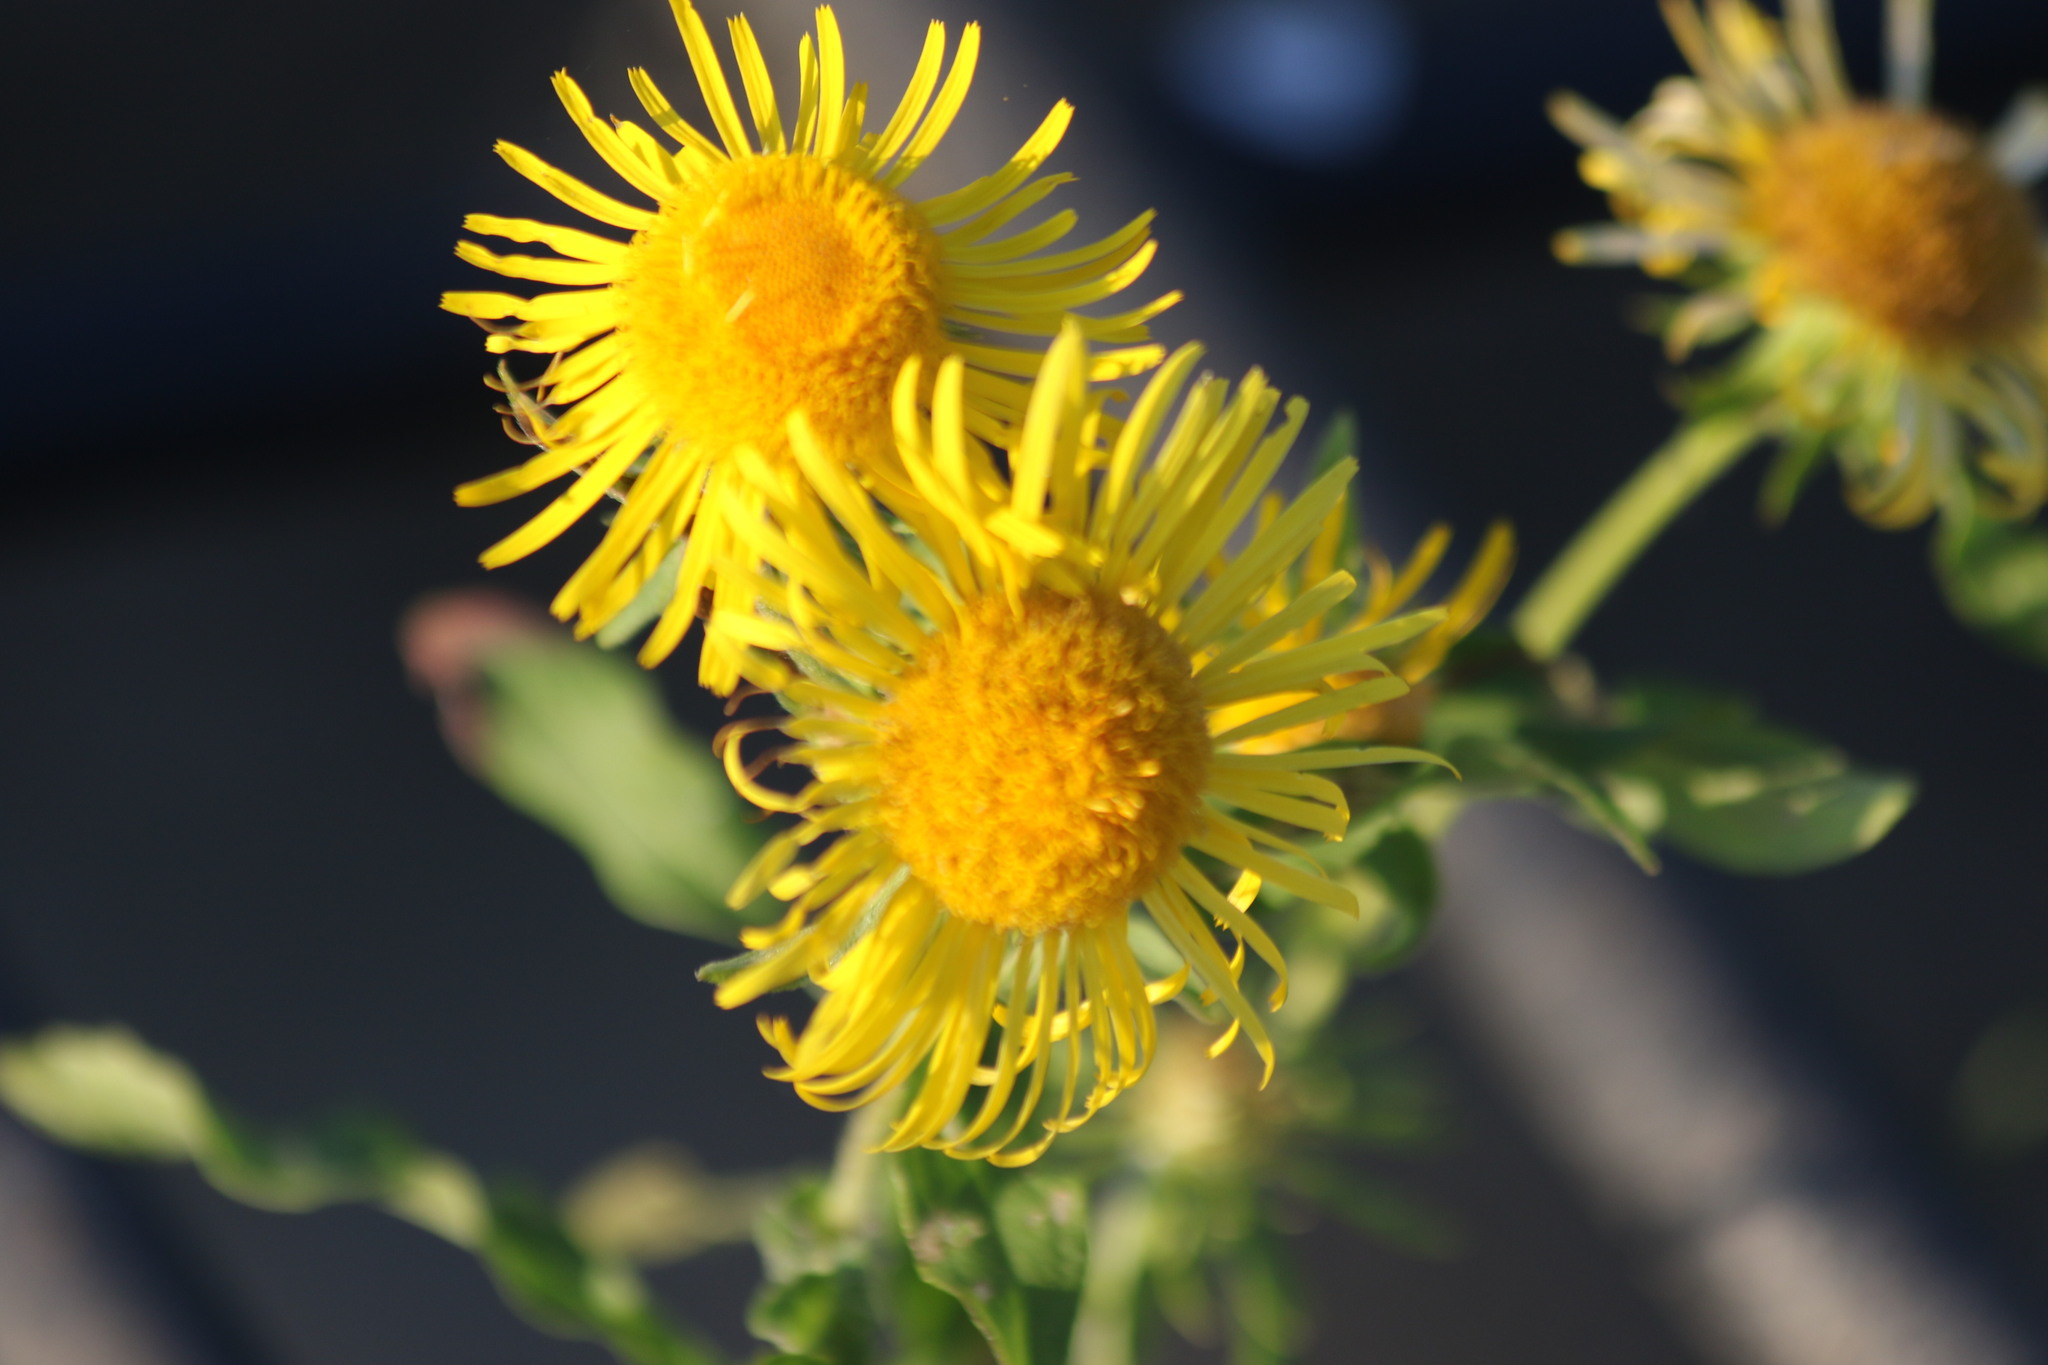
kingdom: Plantae
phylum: Tracheophyta
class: Magnoliopsida
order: Asterales
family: Asteraceae
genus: Pentanema
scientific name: Pentanema britannicum
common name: British elecampane
